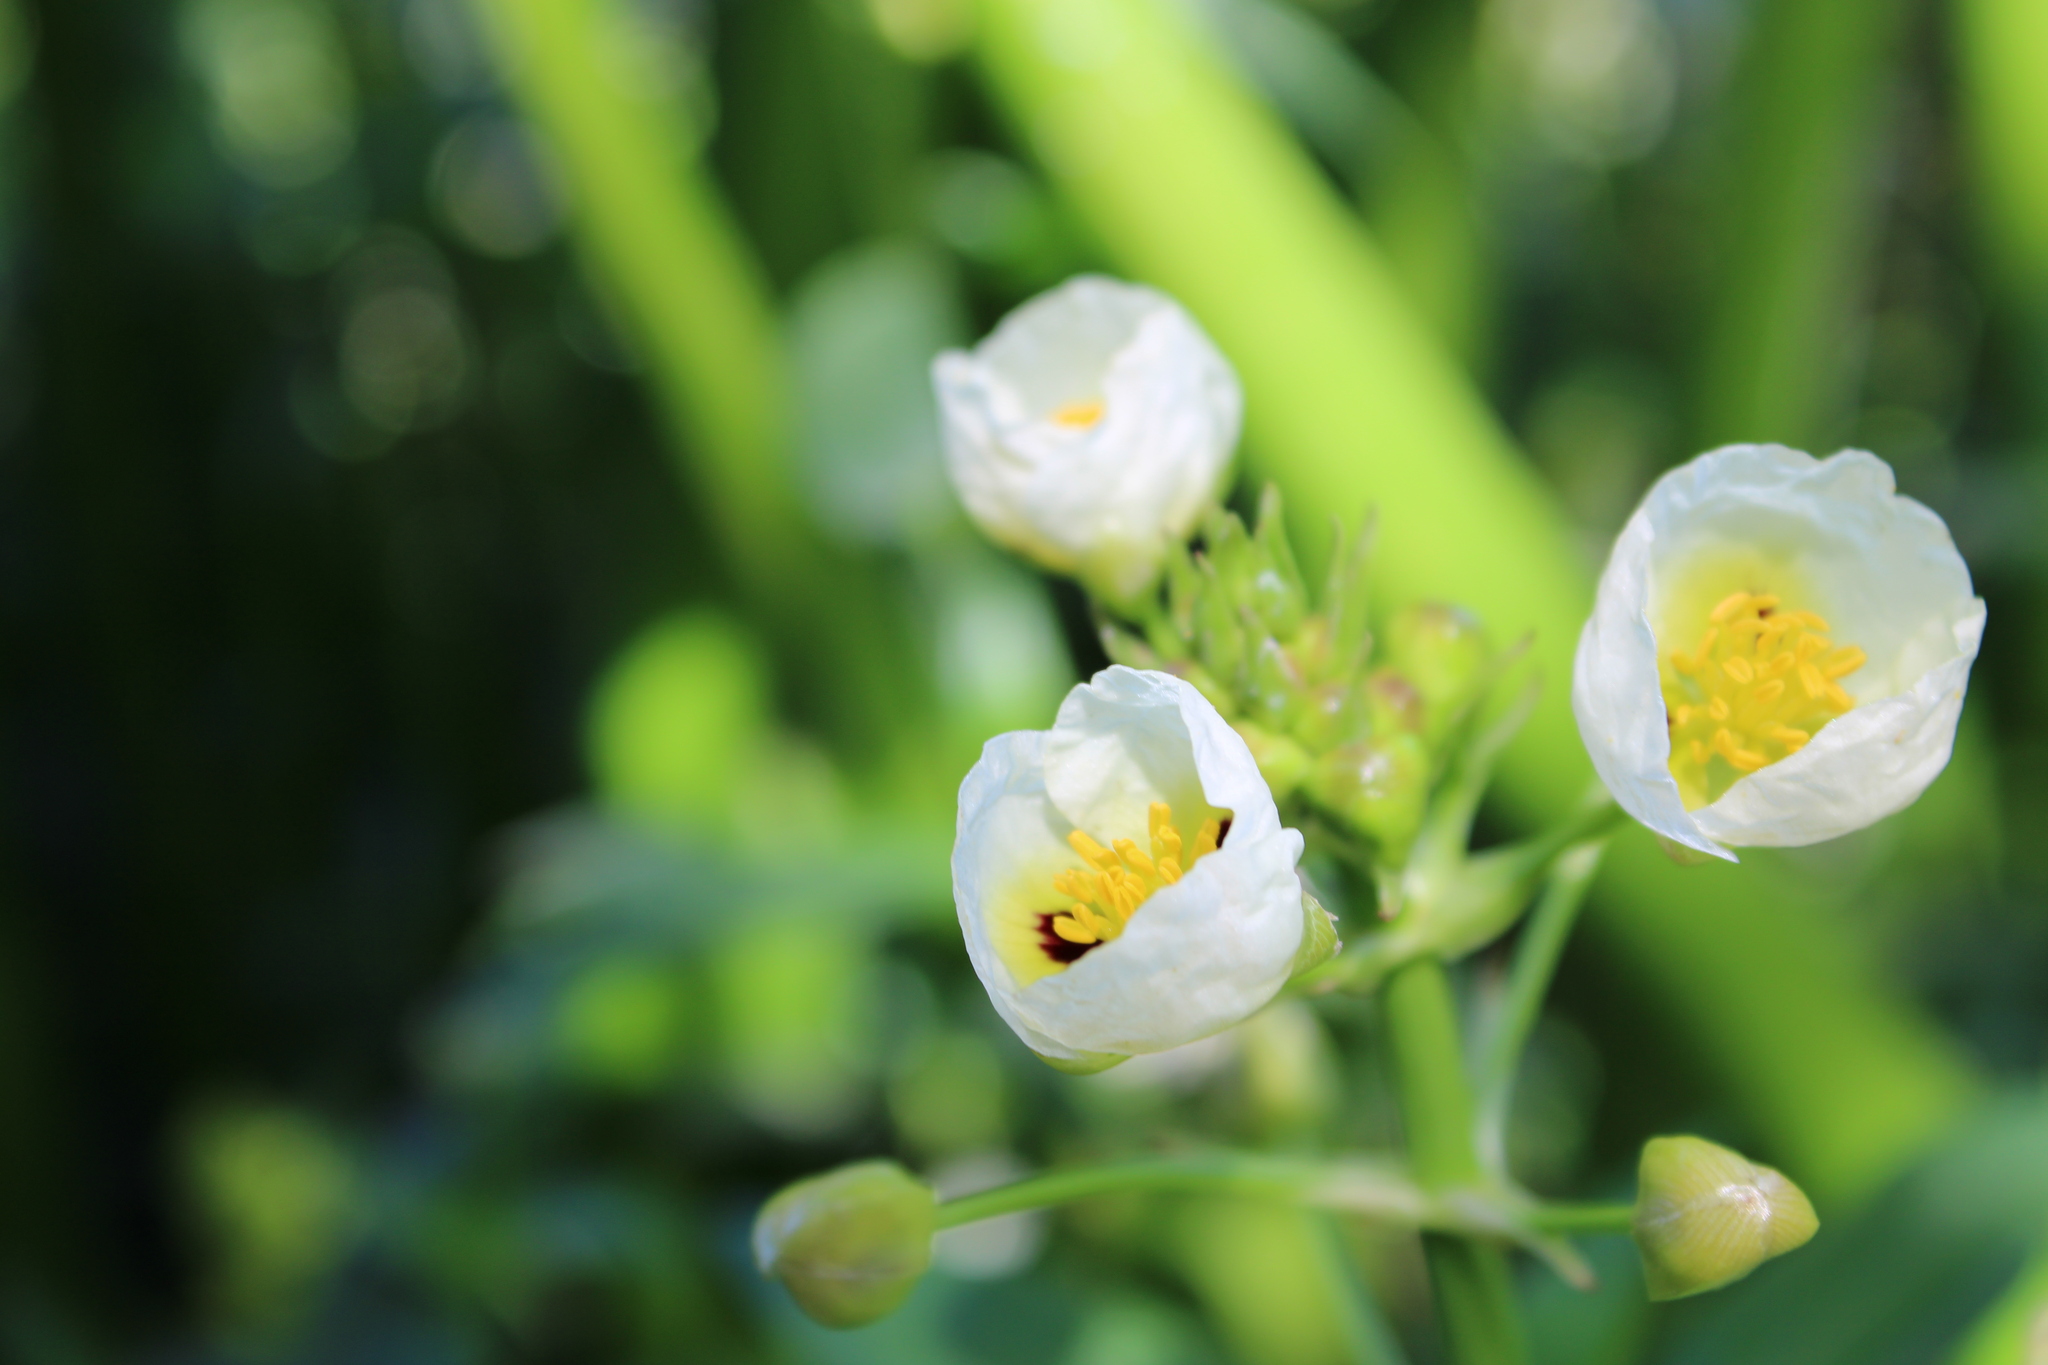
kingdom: Plantae
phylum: Tracheophyta
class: Liliopsida
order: Alismatales
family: Alismataceae
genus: Sagittaria
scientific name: Sagittaria montevidensis
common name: Giant arrowhead
